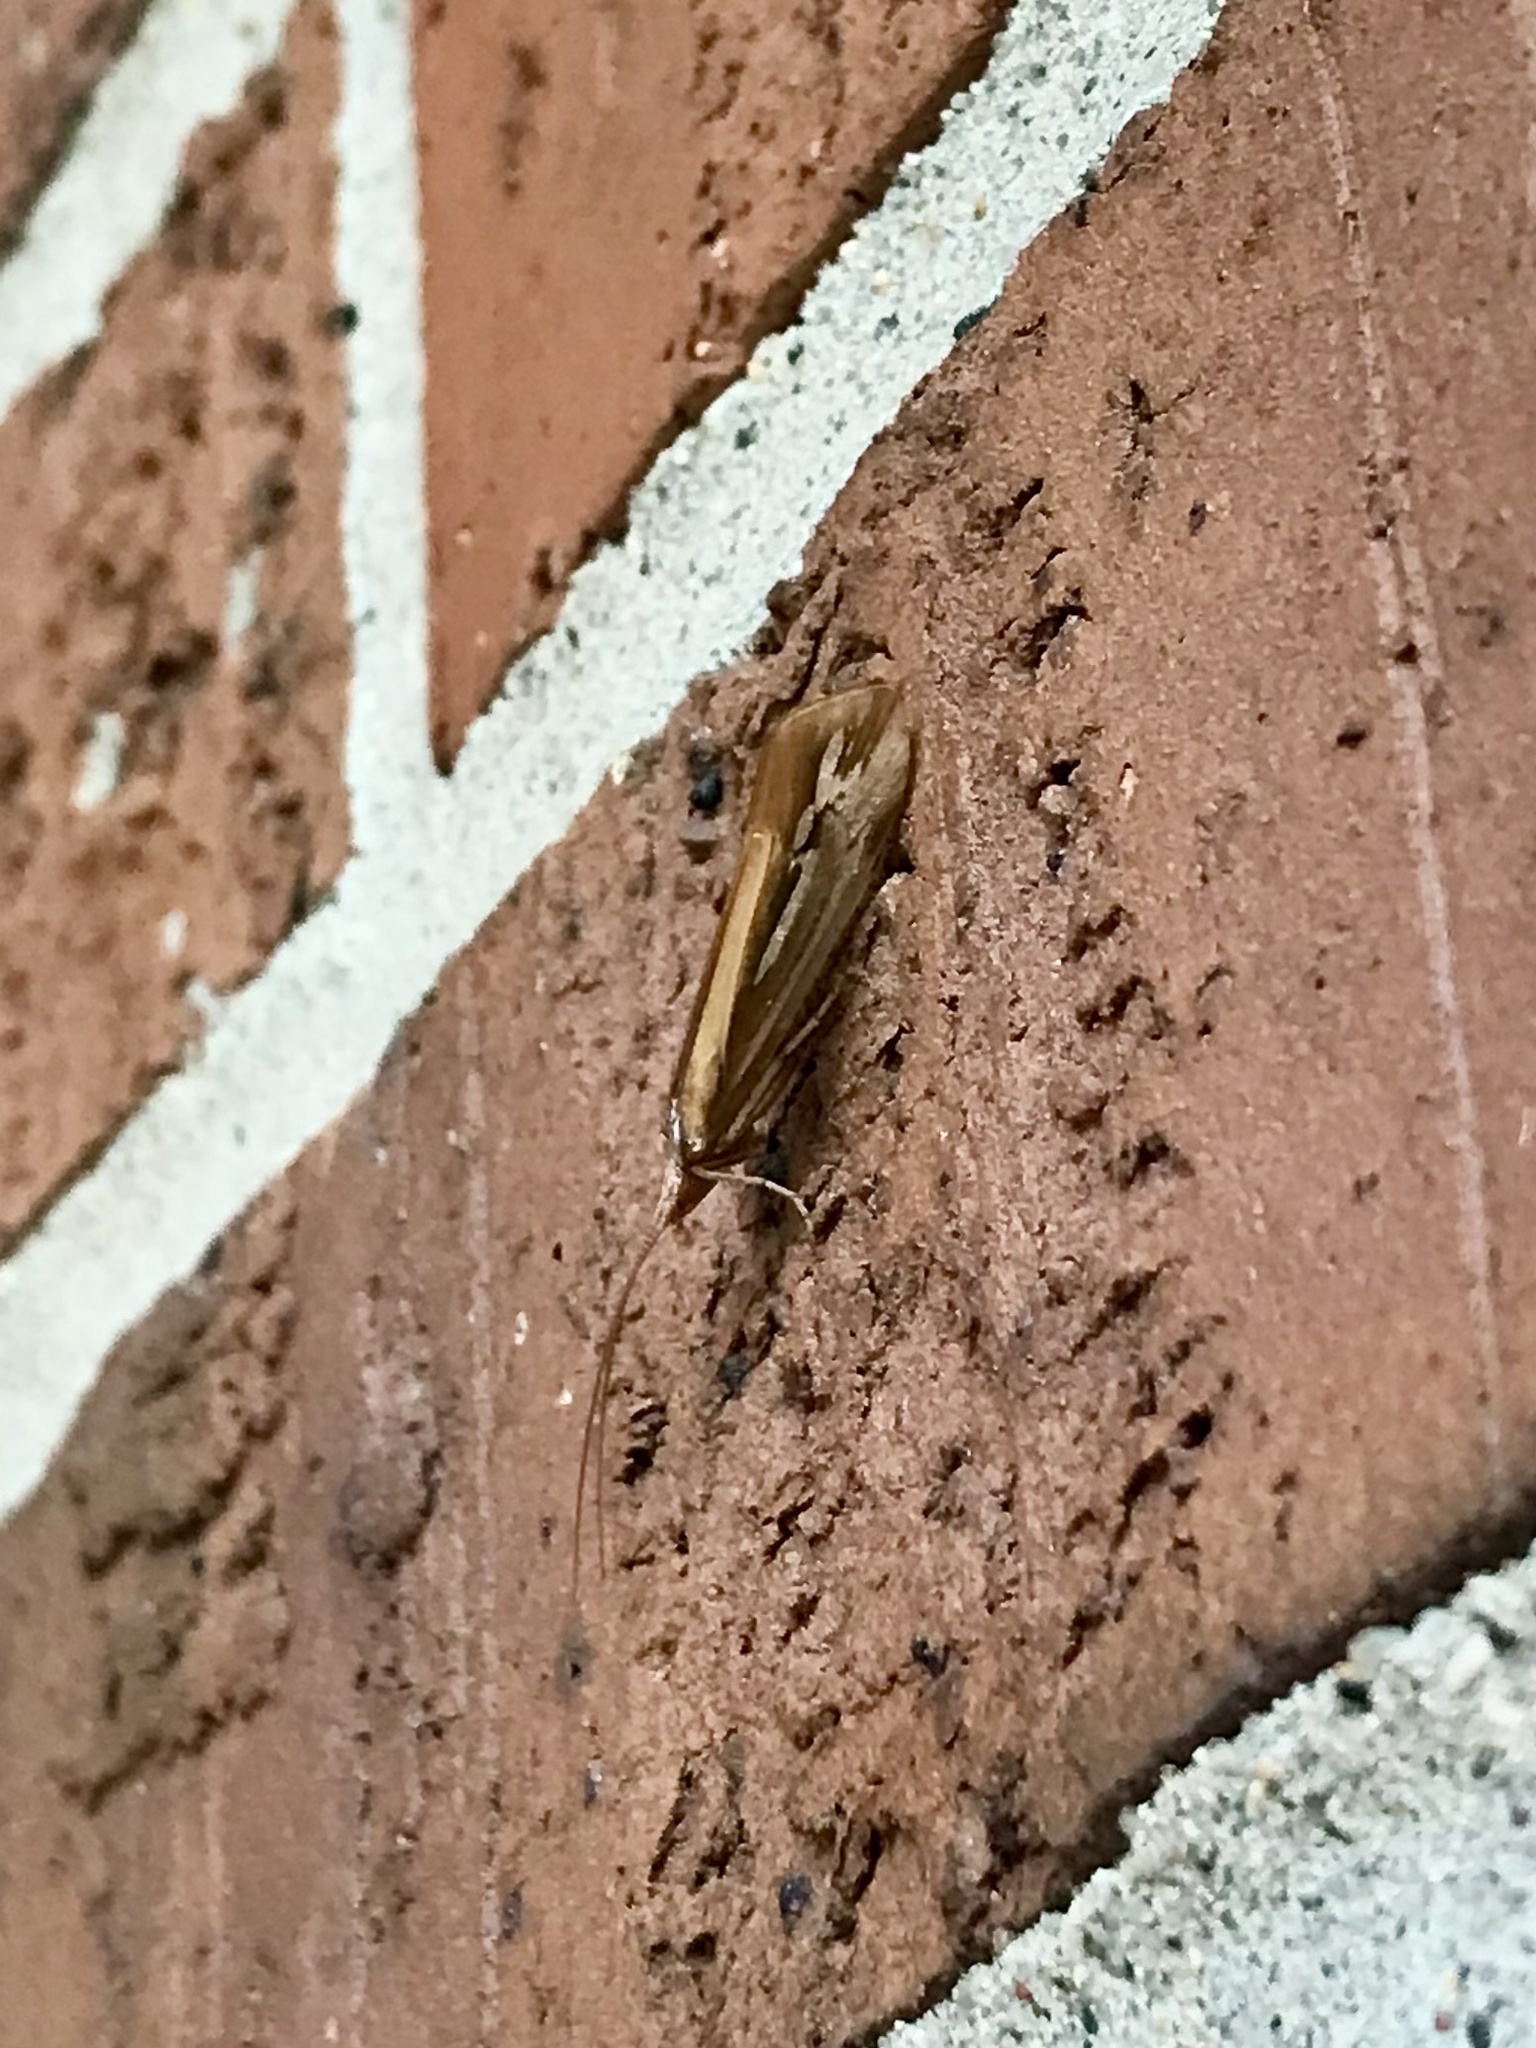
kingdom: Animalia
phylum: Arthropoda
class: Insecta
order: Trichoptera
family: Limnephilidae
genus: Limnephilus
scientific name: Limnephilus ornatus
